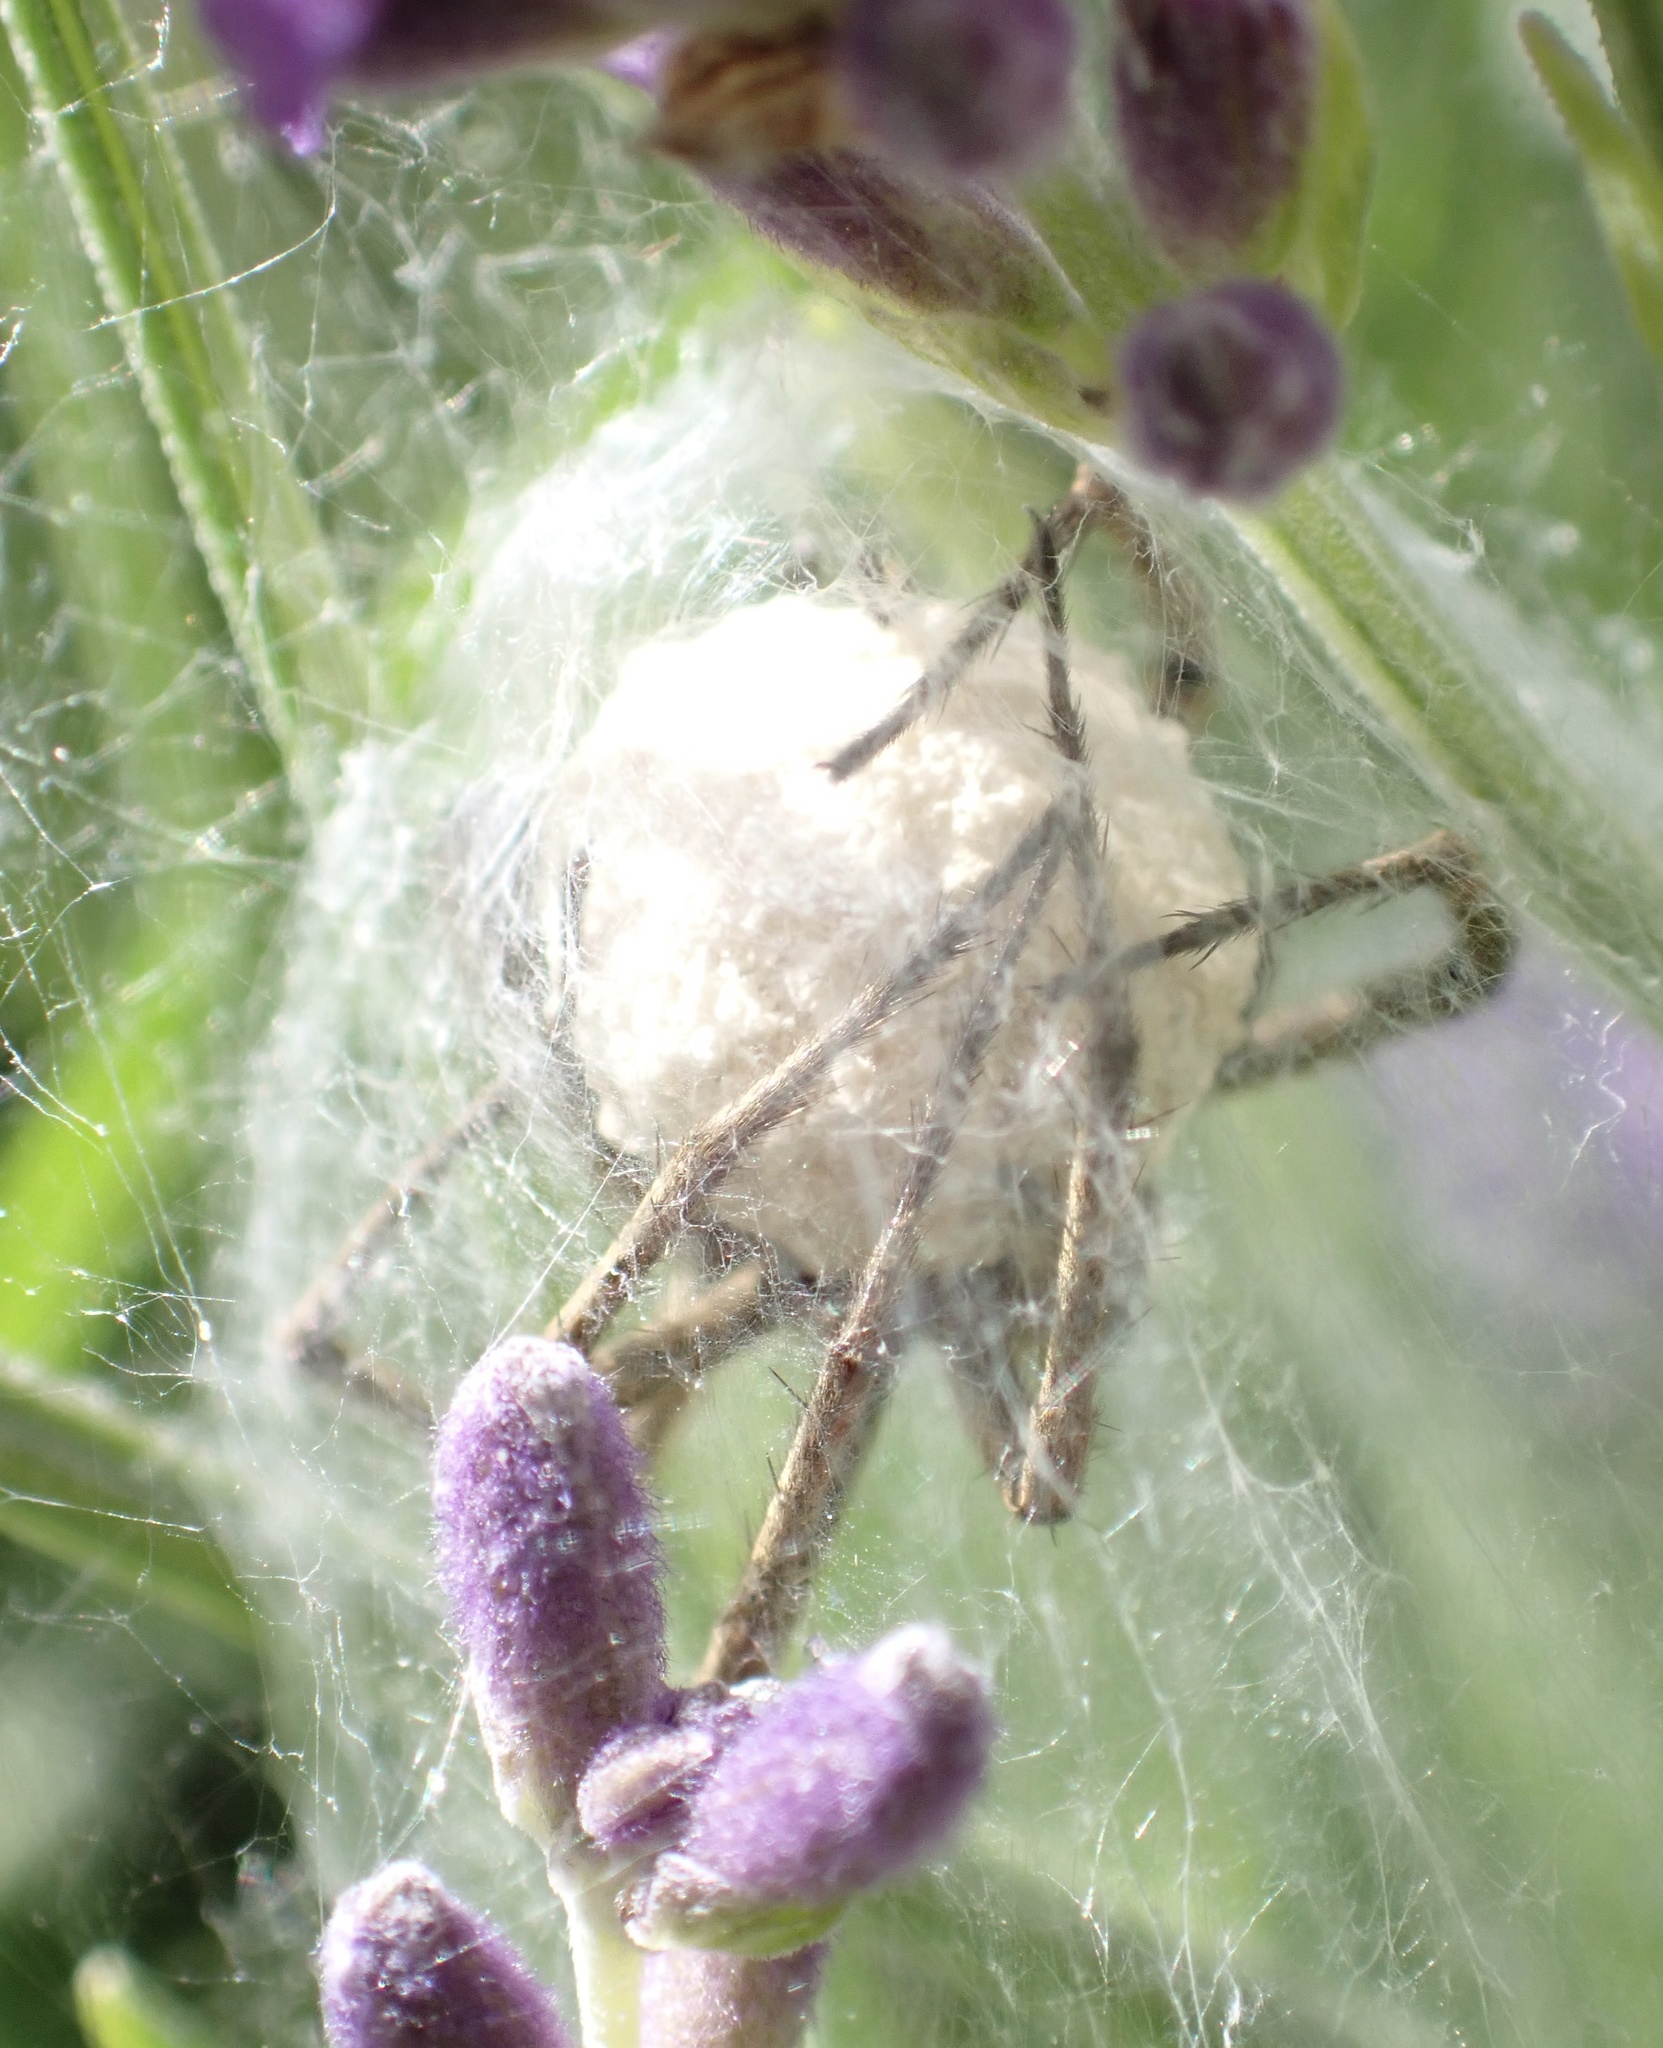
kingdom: Animalia
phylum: Arthropoda
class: Arachnida
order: Araneae
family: Pisauridae
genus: Pisaura
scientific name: Pisaura mirabilis
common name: Tent spider
